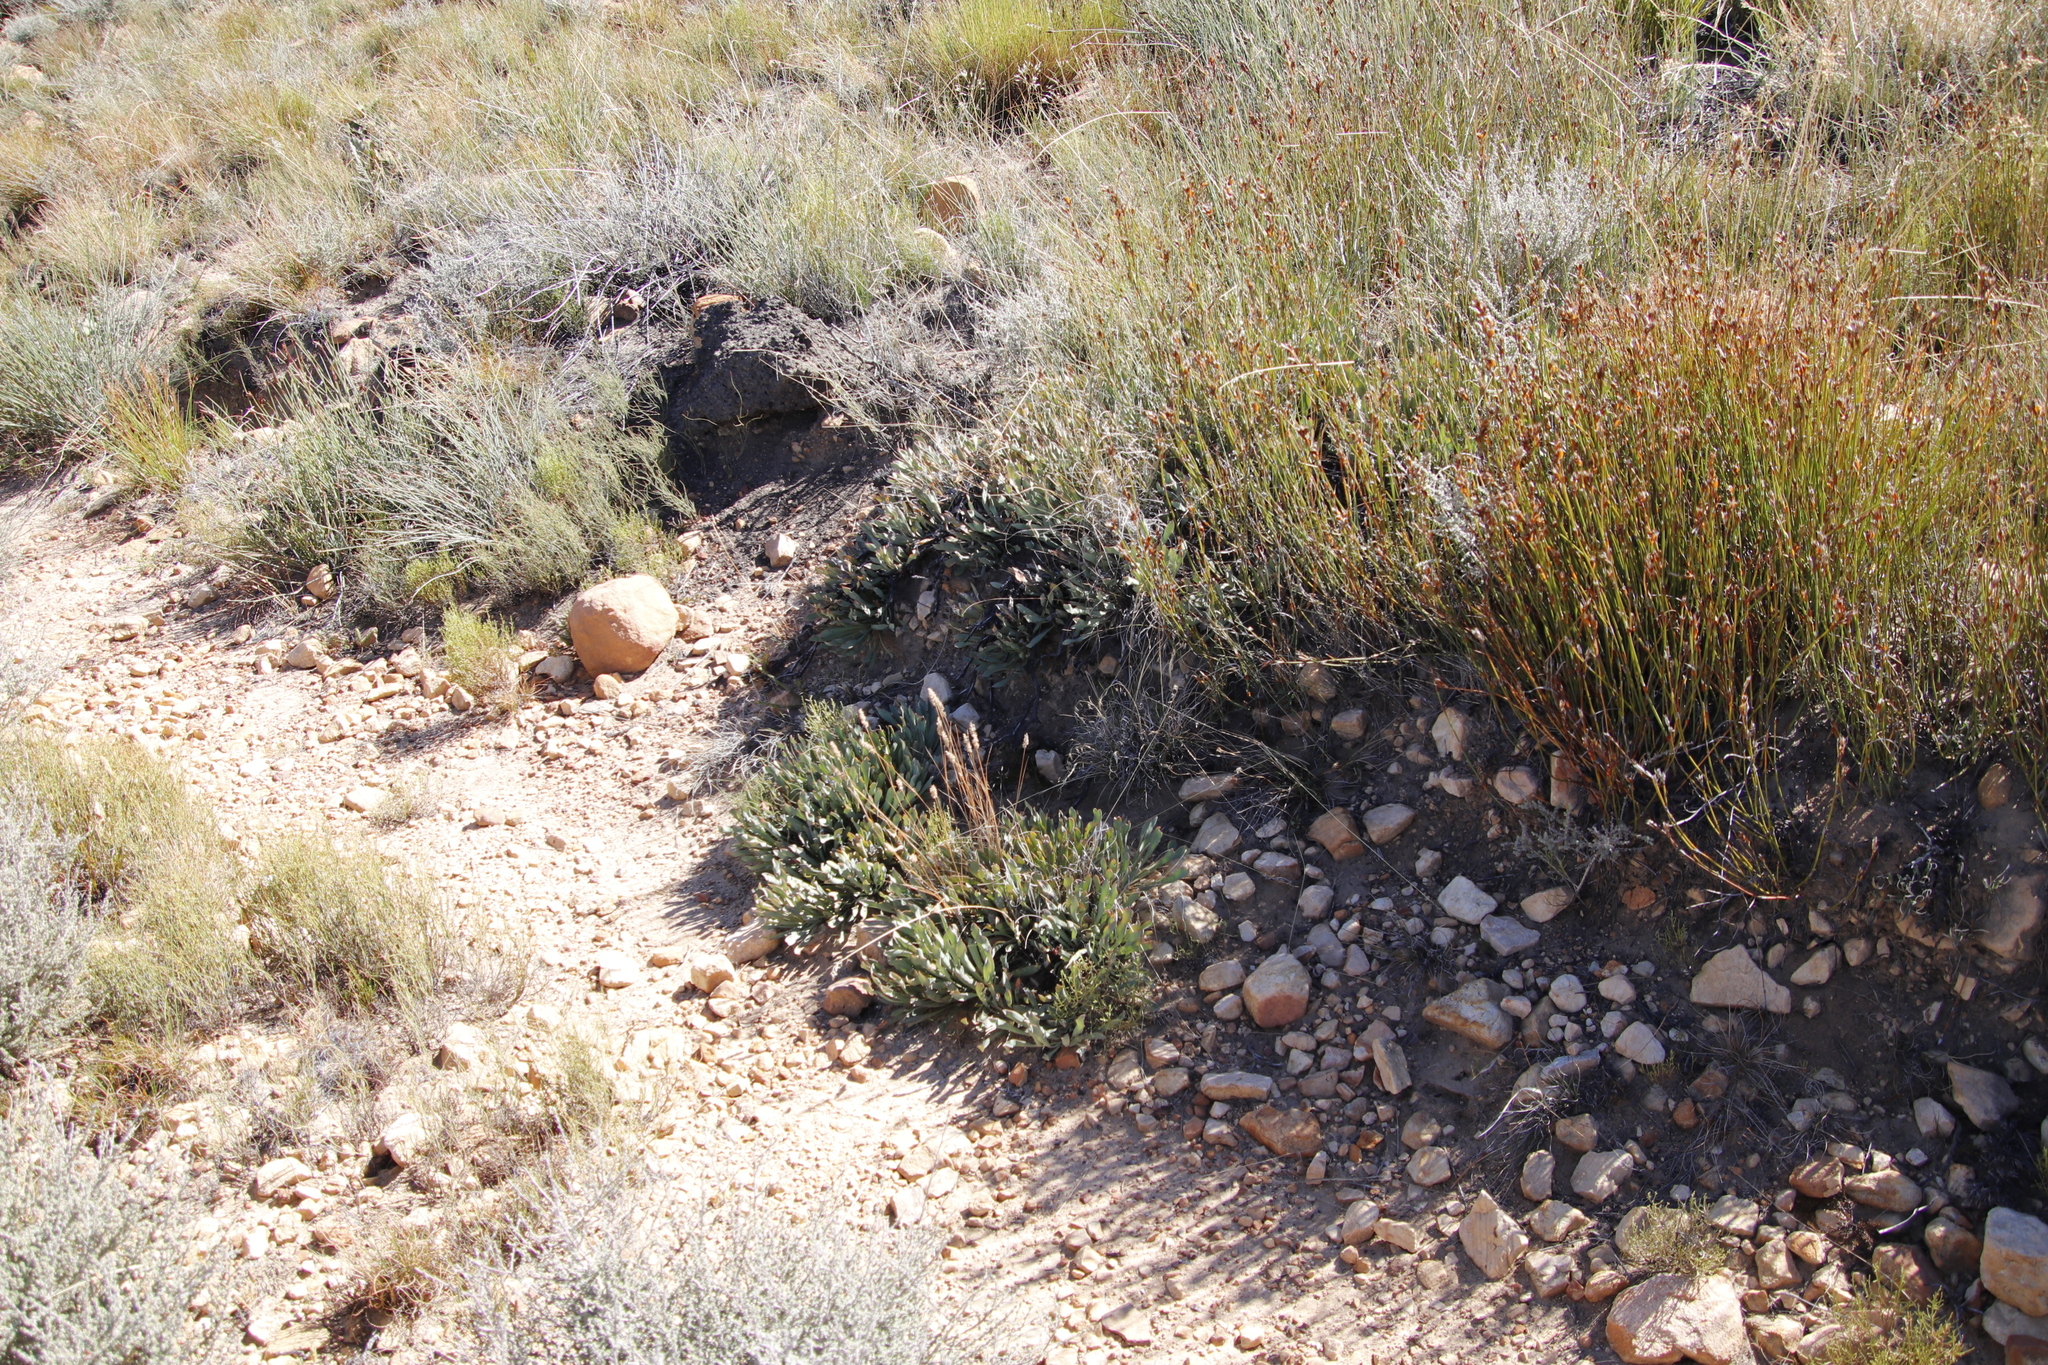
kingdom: Plantae
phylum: Tracheophyta
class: Magnoliopsida
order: Proteales
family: Proteaceae
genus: Protea
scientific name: Protea laevis
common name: Smooth-leaf sugarbush
